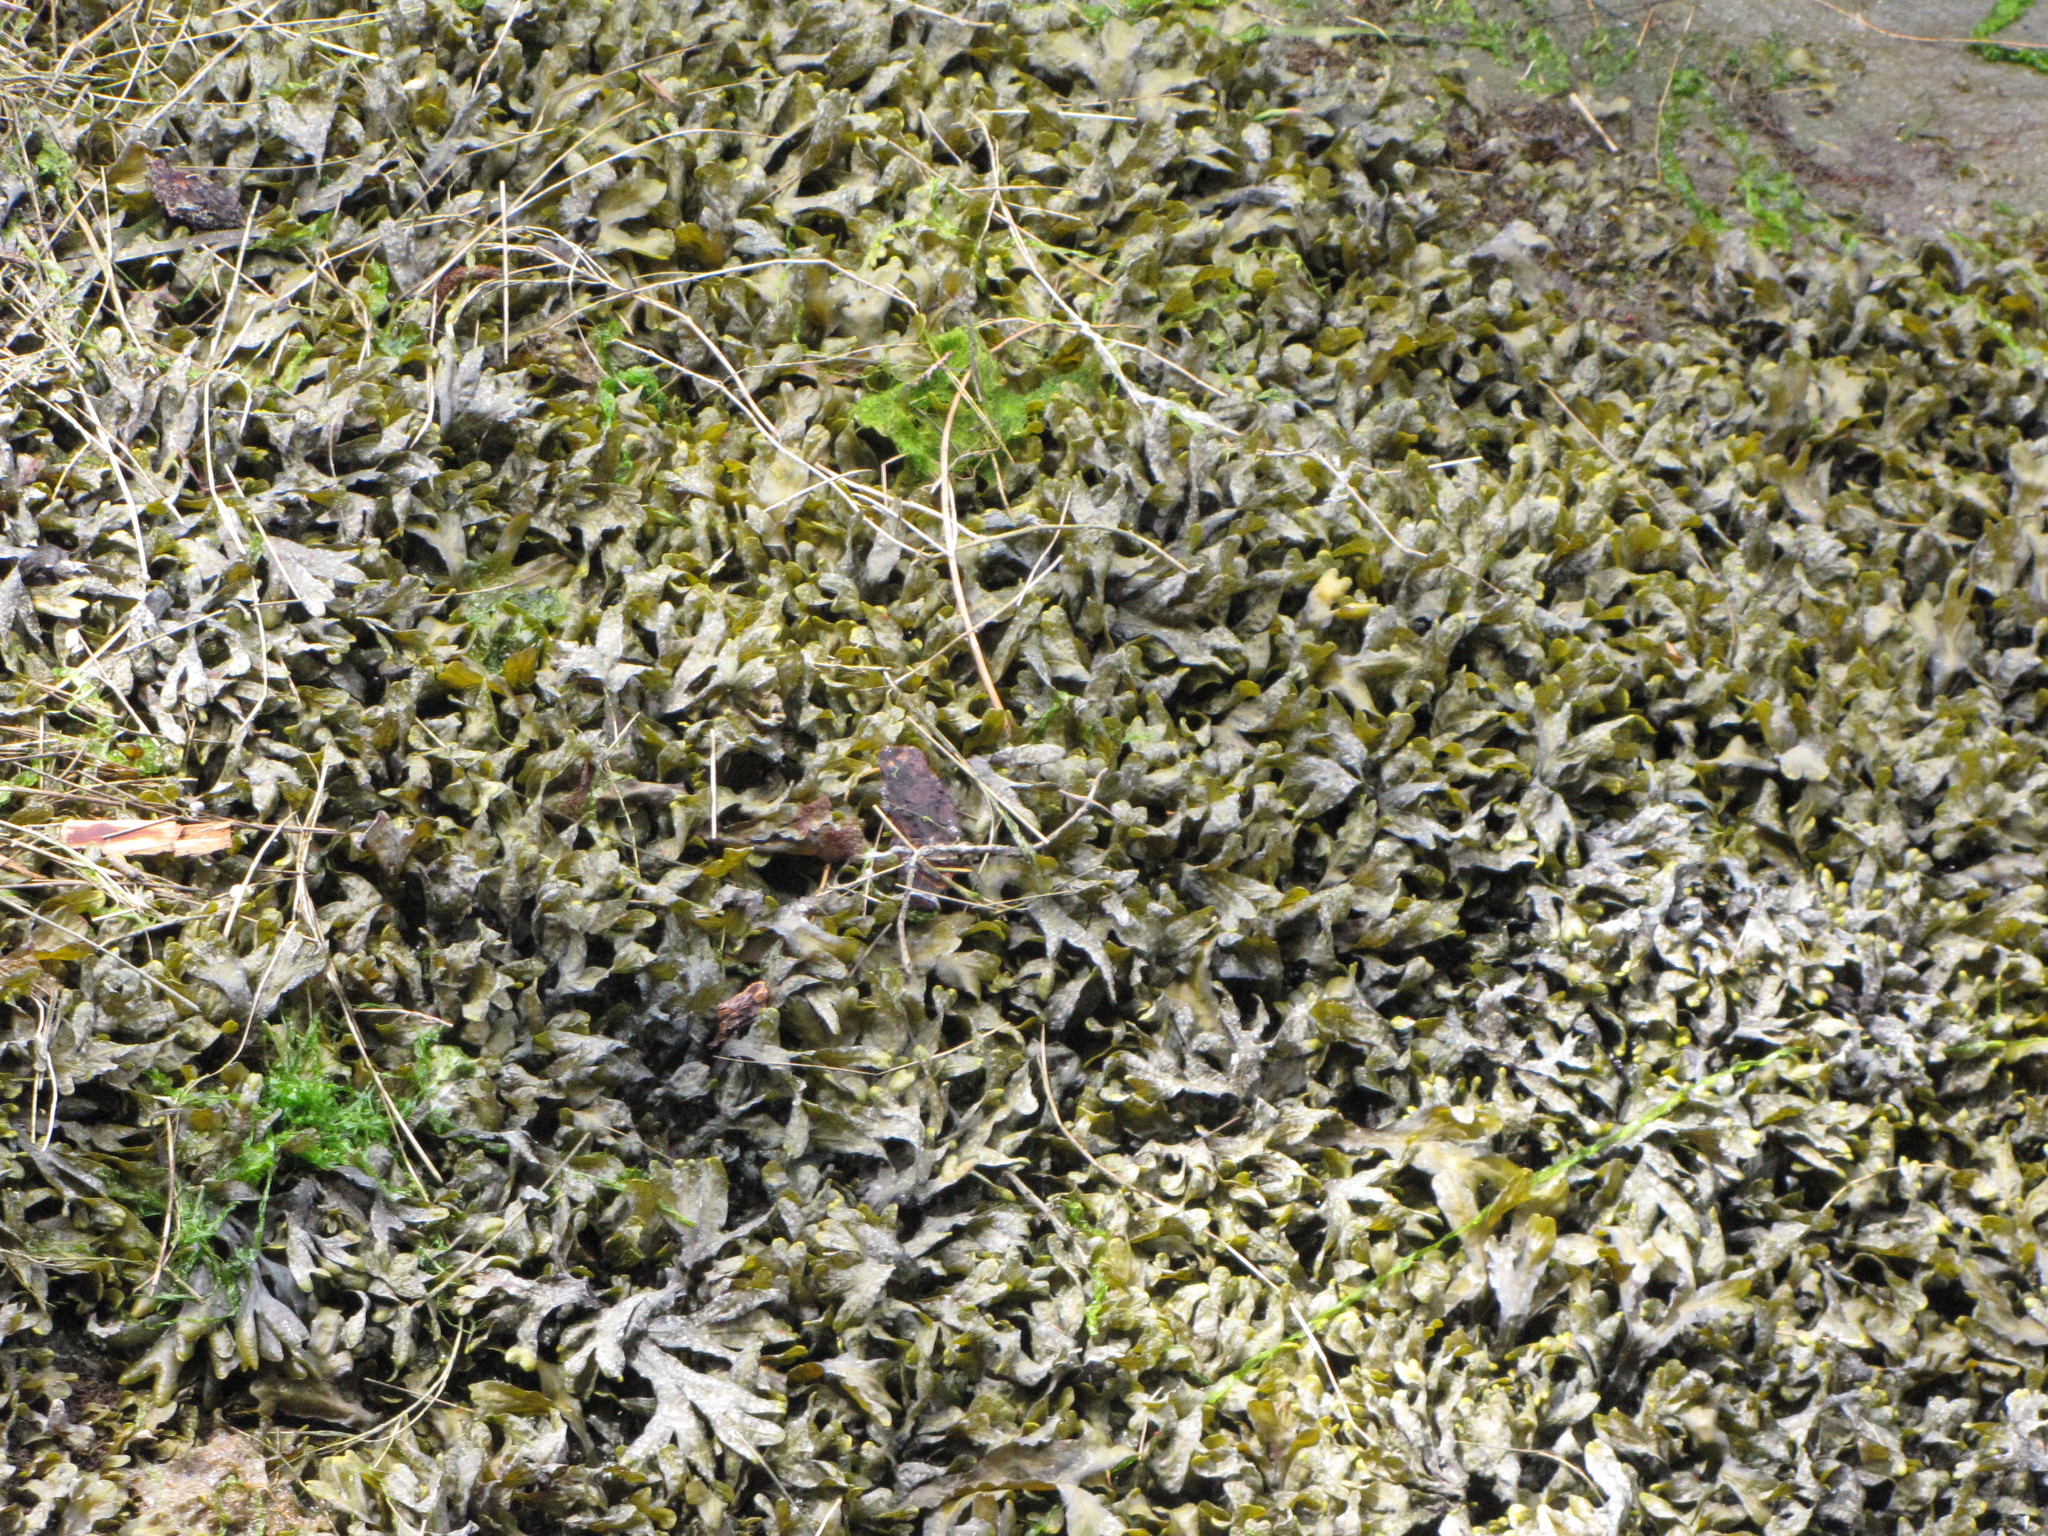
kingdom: Chromista
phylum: Ochrophyta
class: Phaeophyceae
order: Fucales
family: Fucaceae
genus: Fucus
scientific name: Fucus distichus
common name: Rockweed
